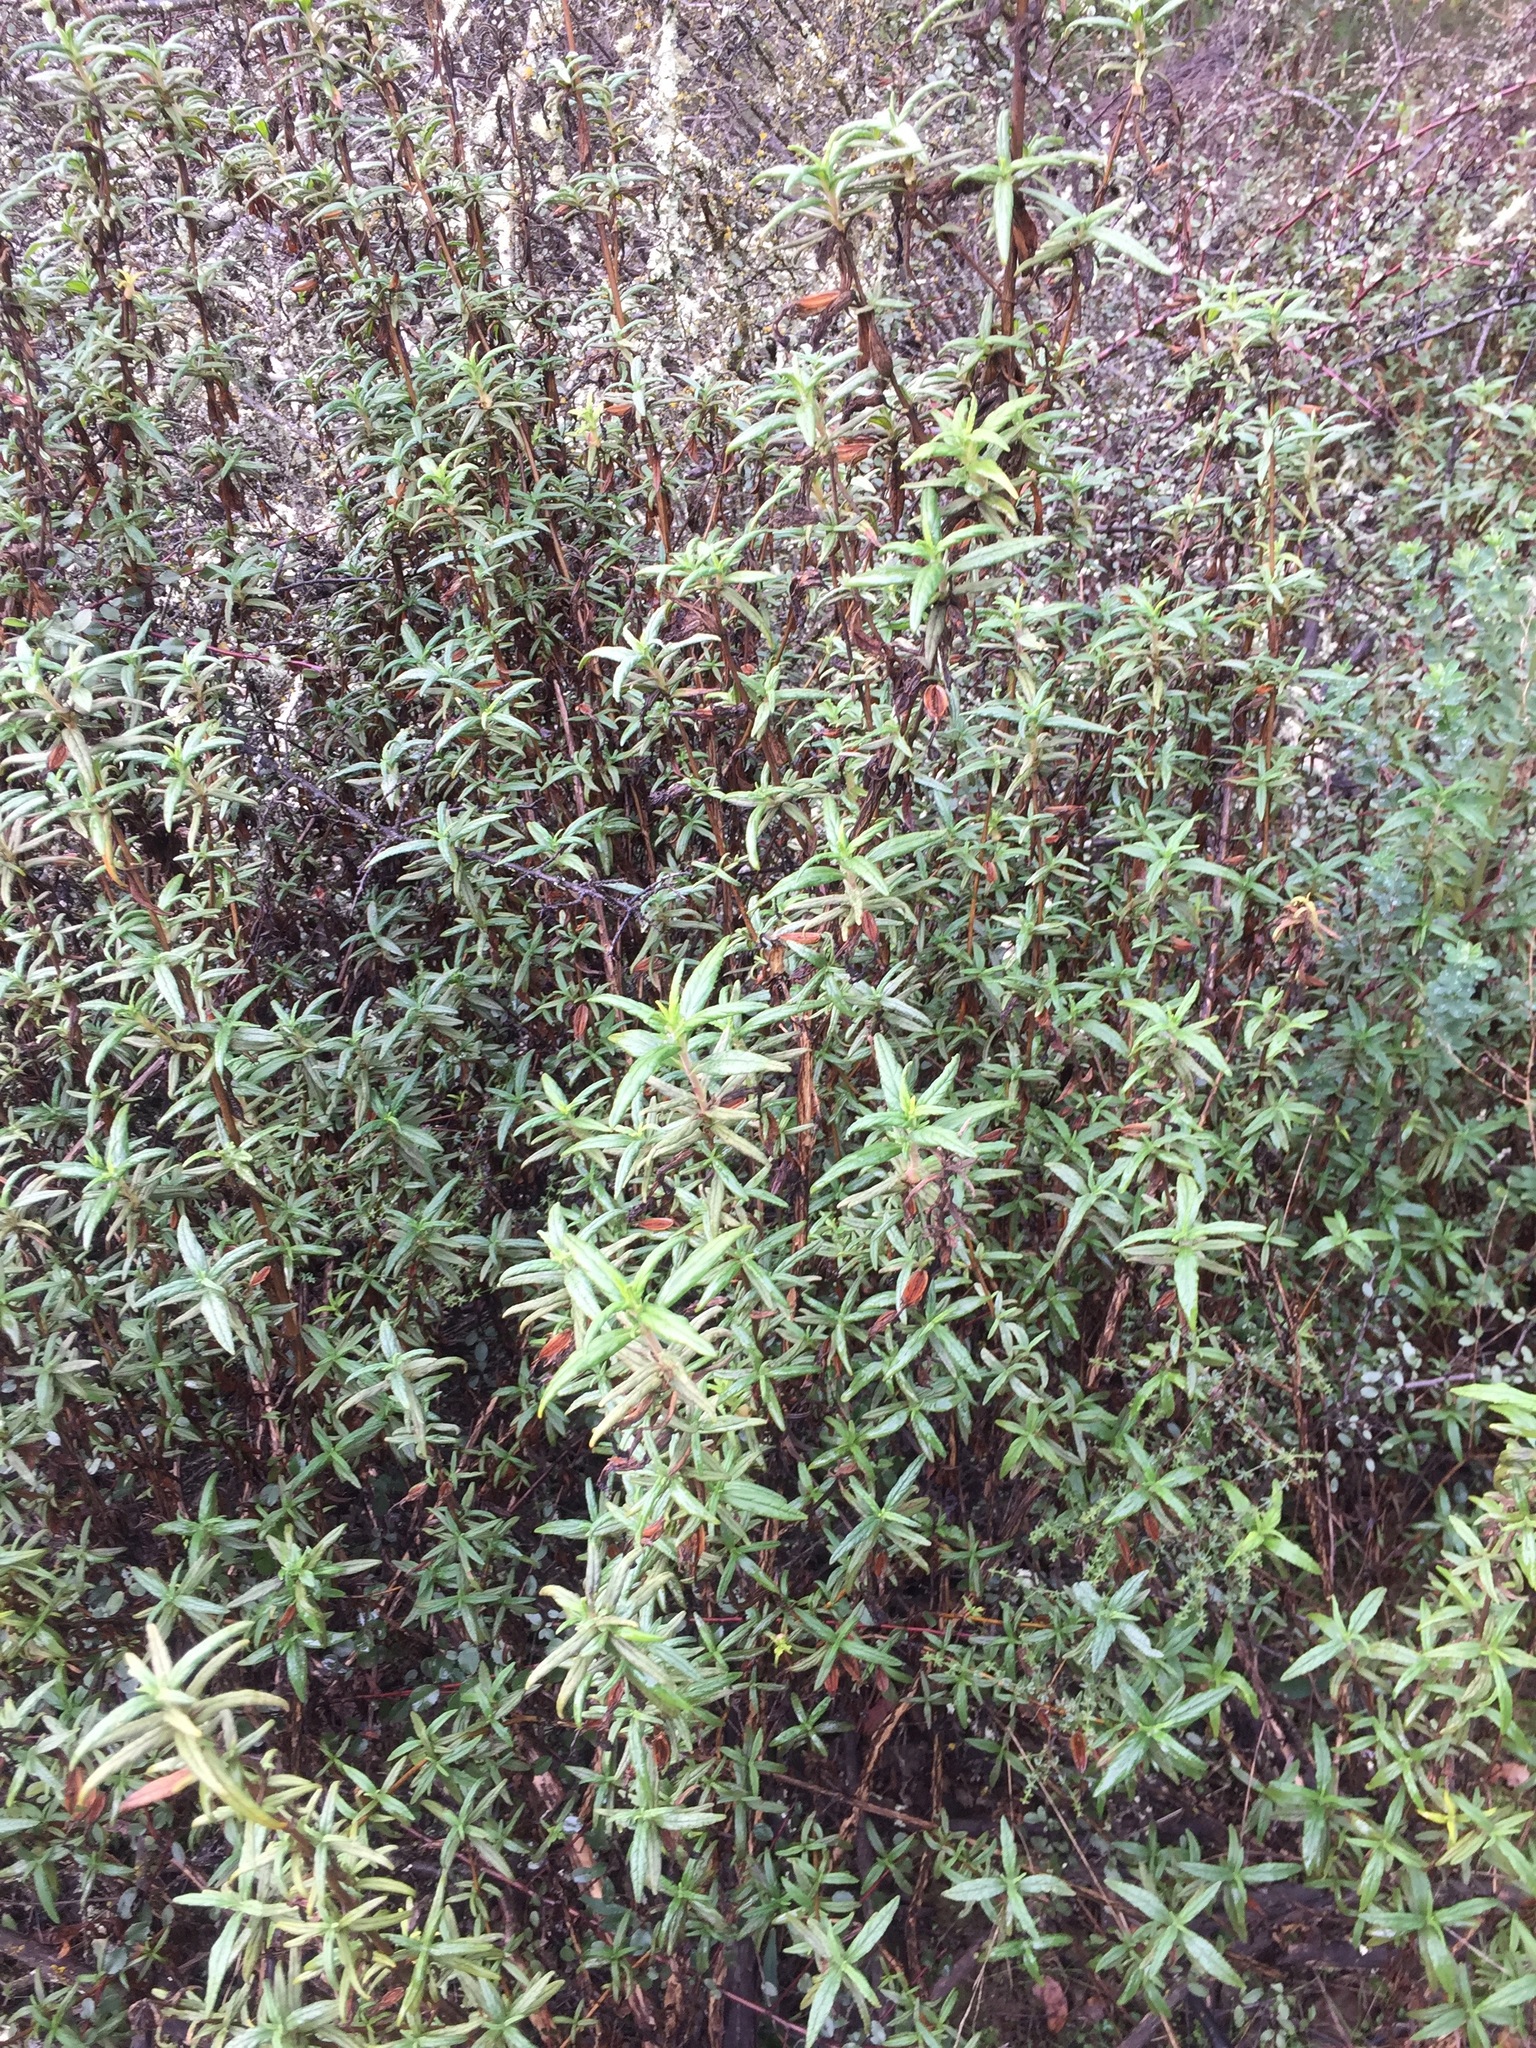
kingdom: Plantae
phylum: Tracheophyta
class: Magnoliopsida
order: Lamiales
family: Phrymaceae
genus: Diplacus
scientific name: Diplacus aurantiacus
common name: Bush monkey-flower
